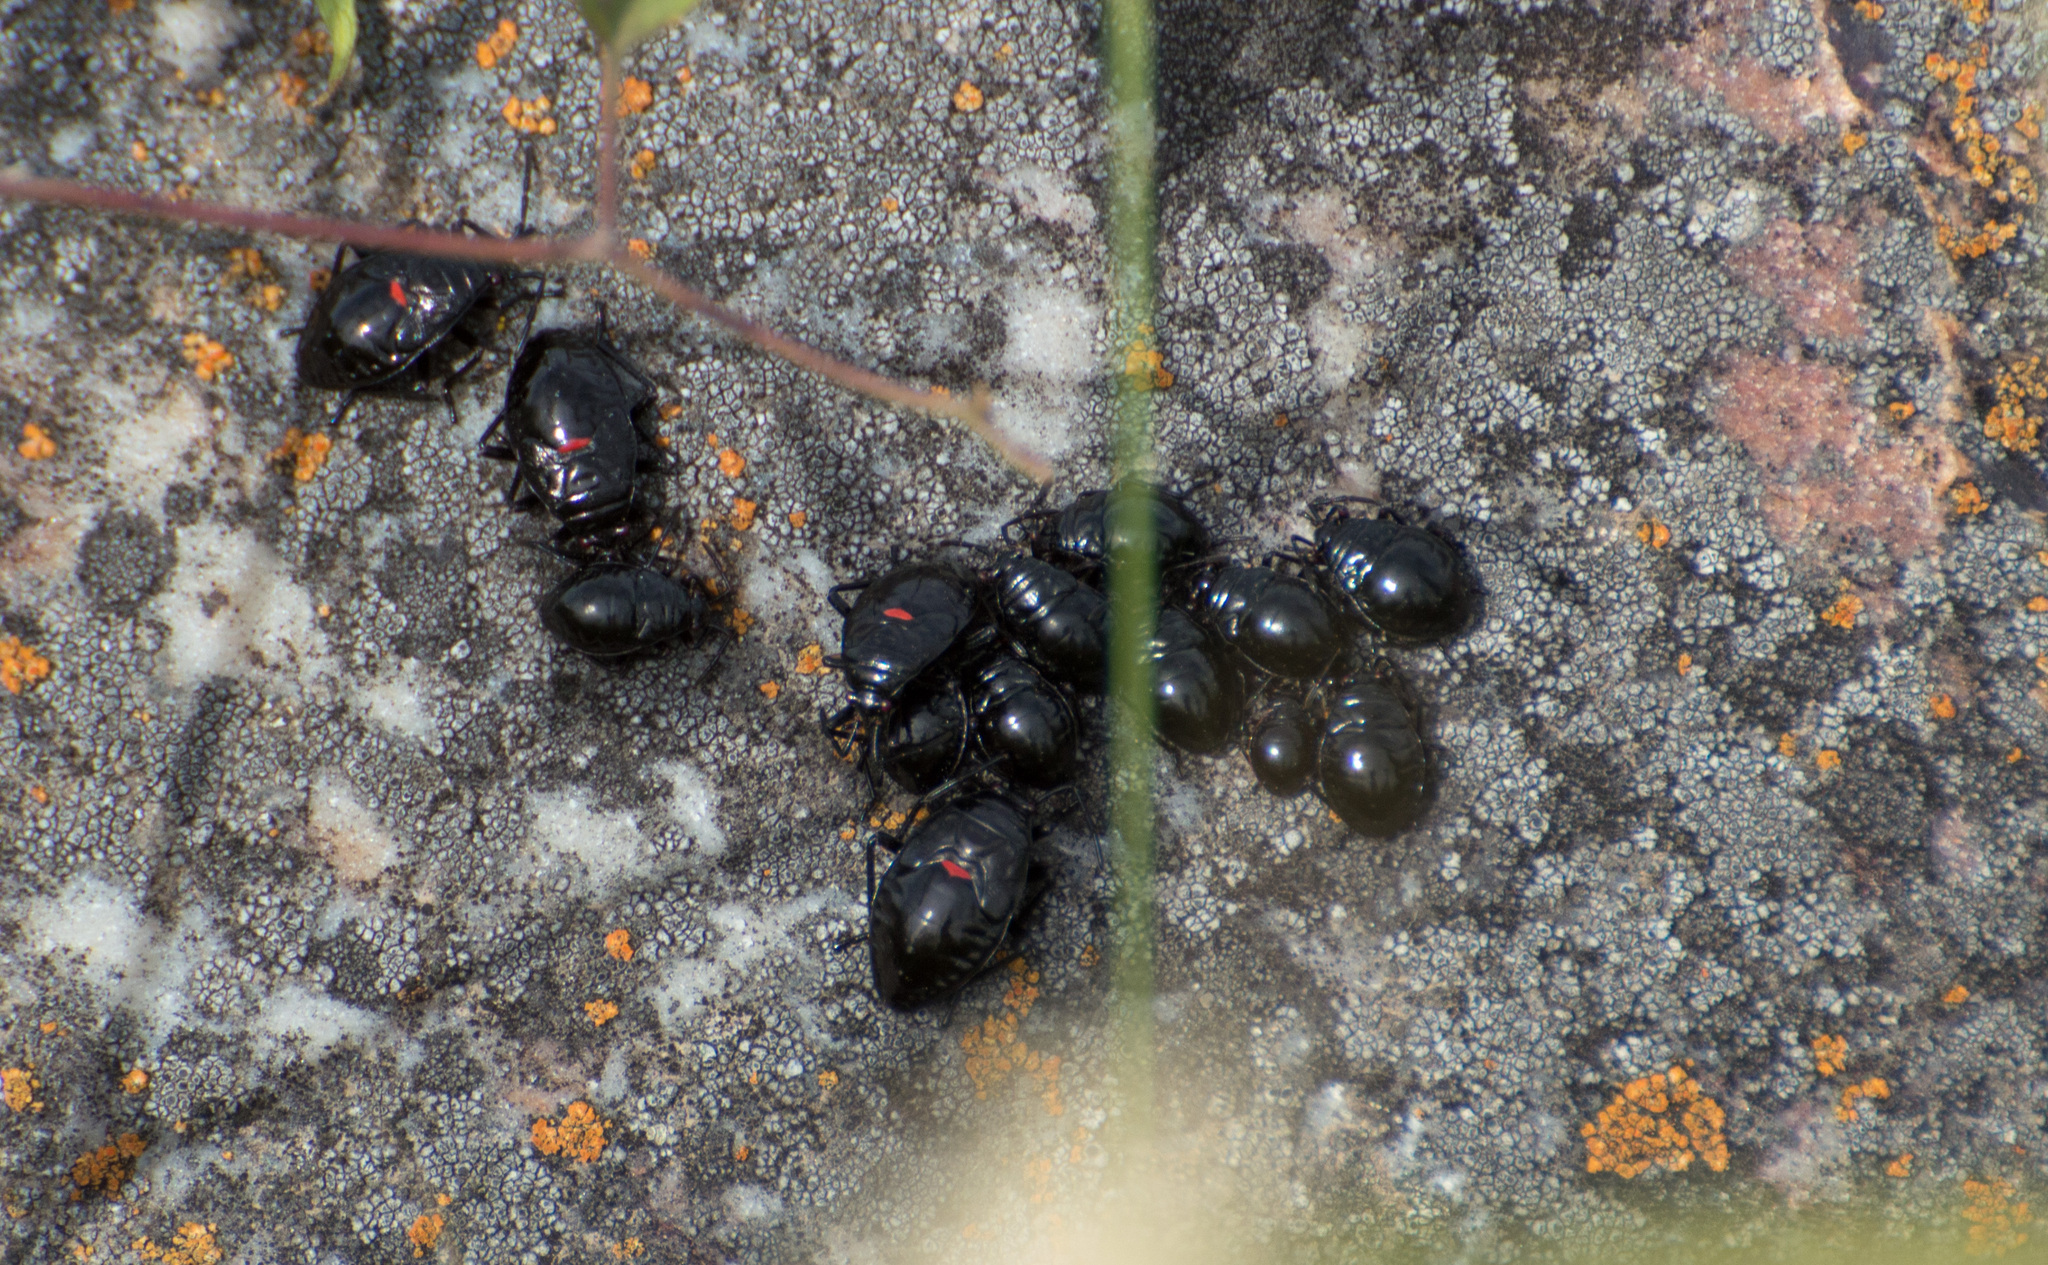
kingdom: Animalia
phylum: Arthropoda
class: Insecta
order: Hemiptera
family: Largidae
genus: Largus
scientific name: Largus rufipennis
